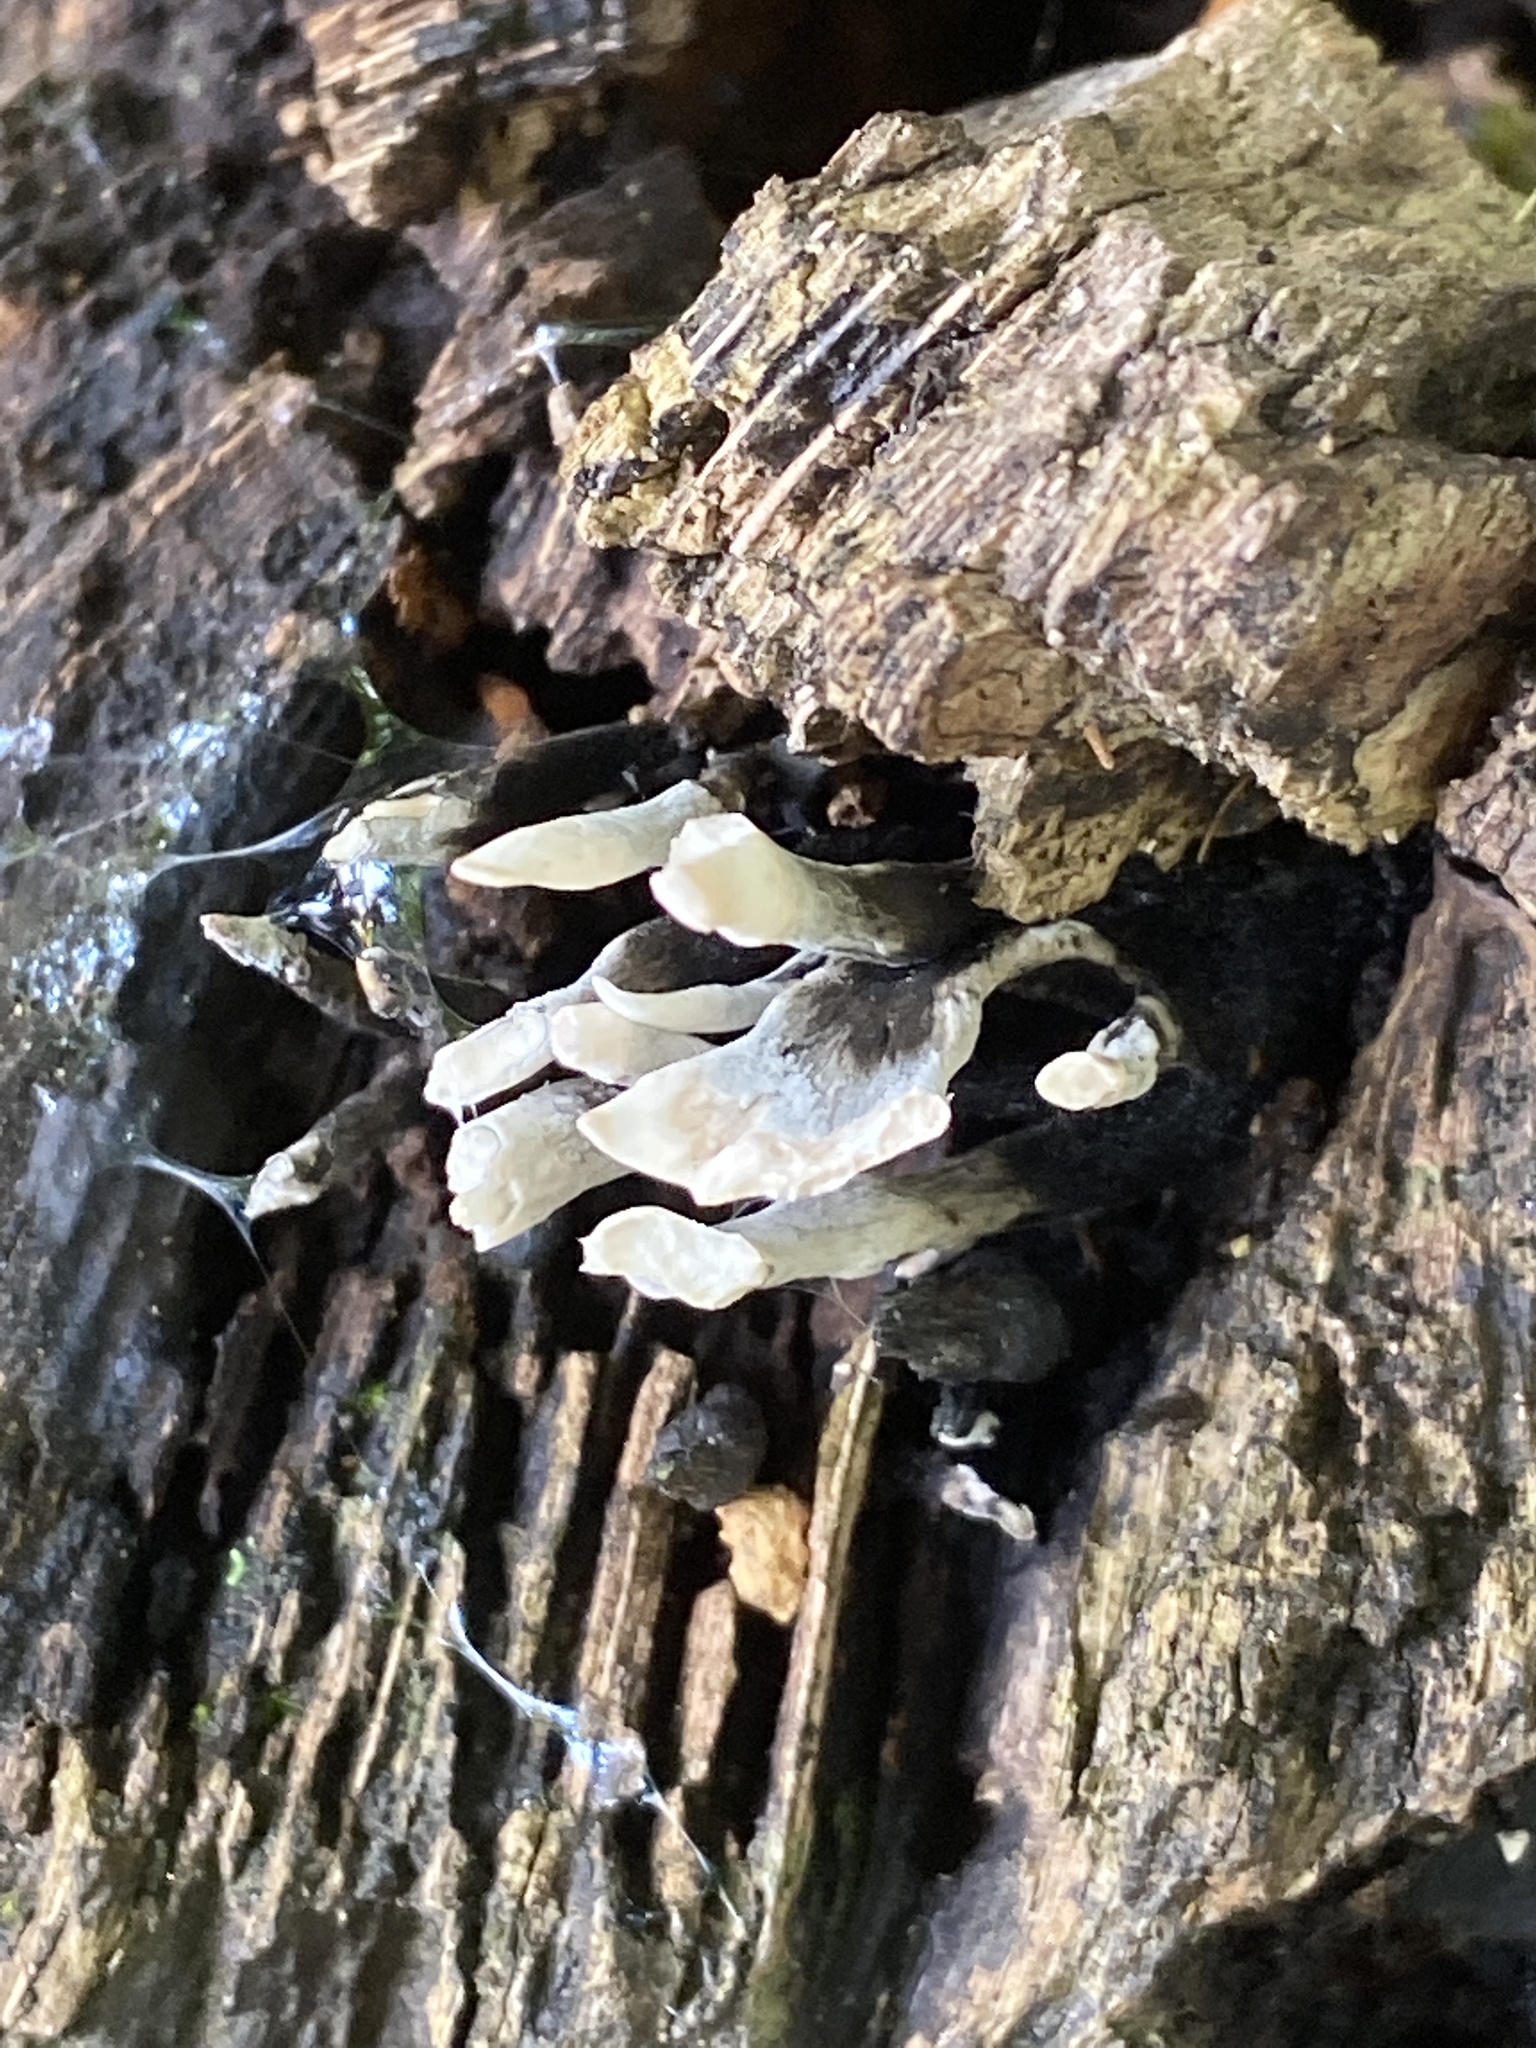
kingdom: Fungi
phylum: Ascomycota
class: Sordariomycetes
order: Xylariales
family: Xylariaceae
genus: Xylaria
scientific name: Xylaria hypoxylon
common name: Candle-snuff fungus
